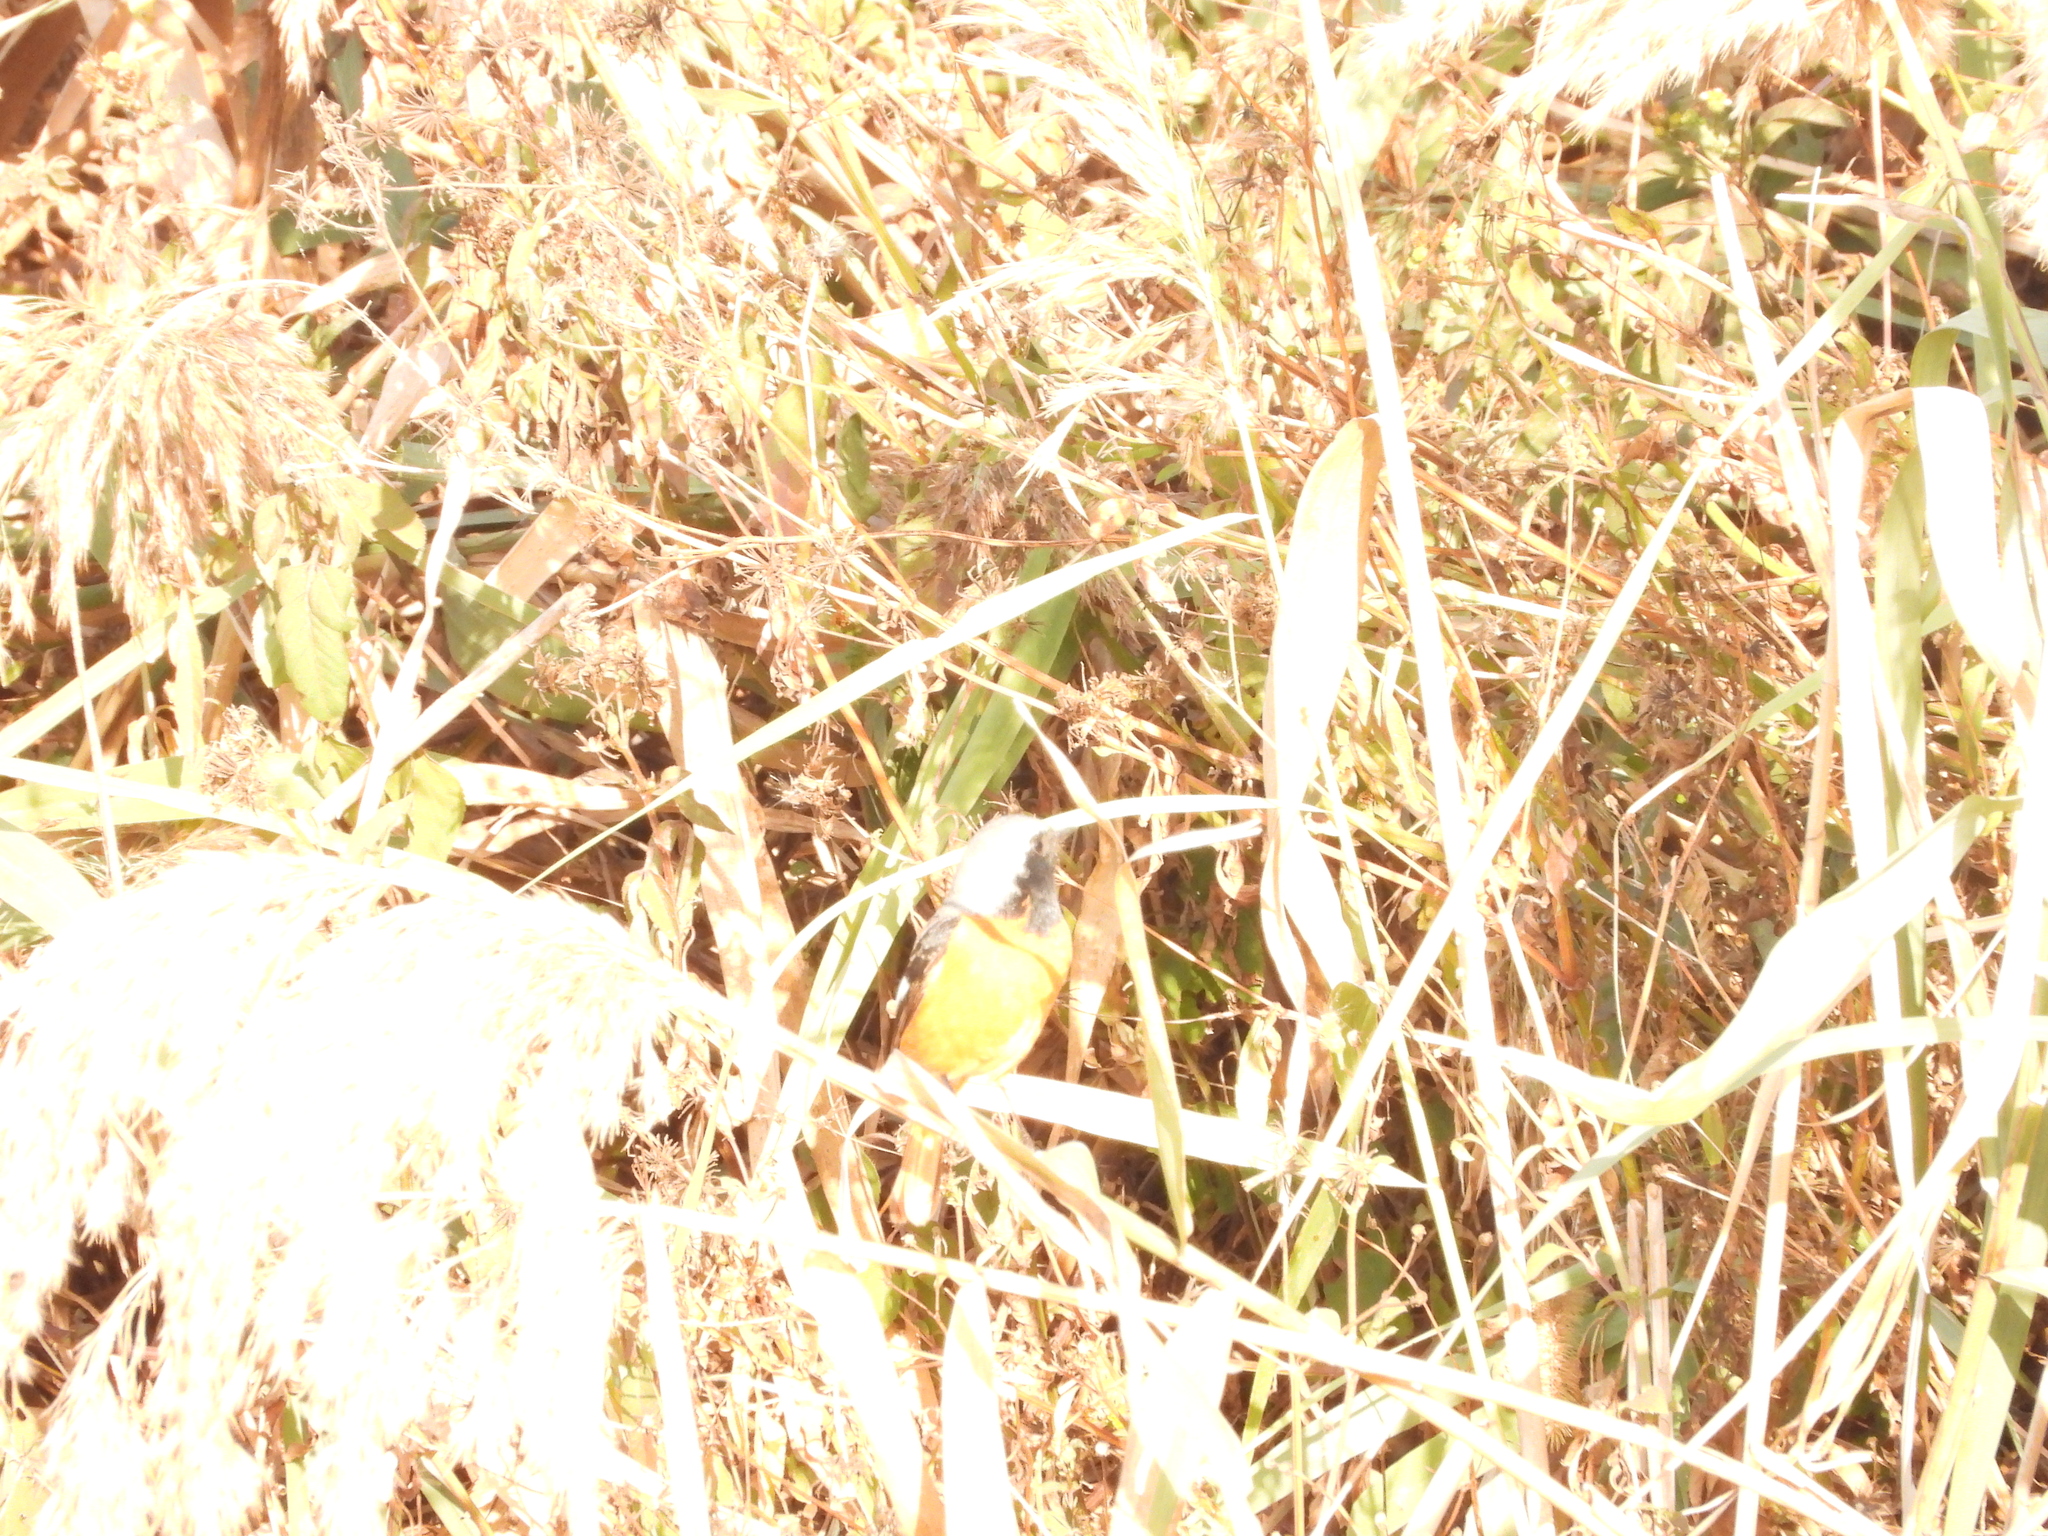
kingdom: Animalia
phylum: Chordata
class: Aves
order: Passeriformes
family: Muscicapidae
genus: Phoenicurus
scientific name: Phoenicurus auroreus
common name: Daurian redstart
